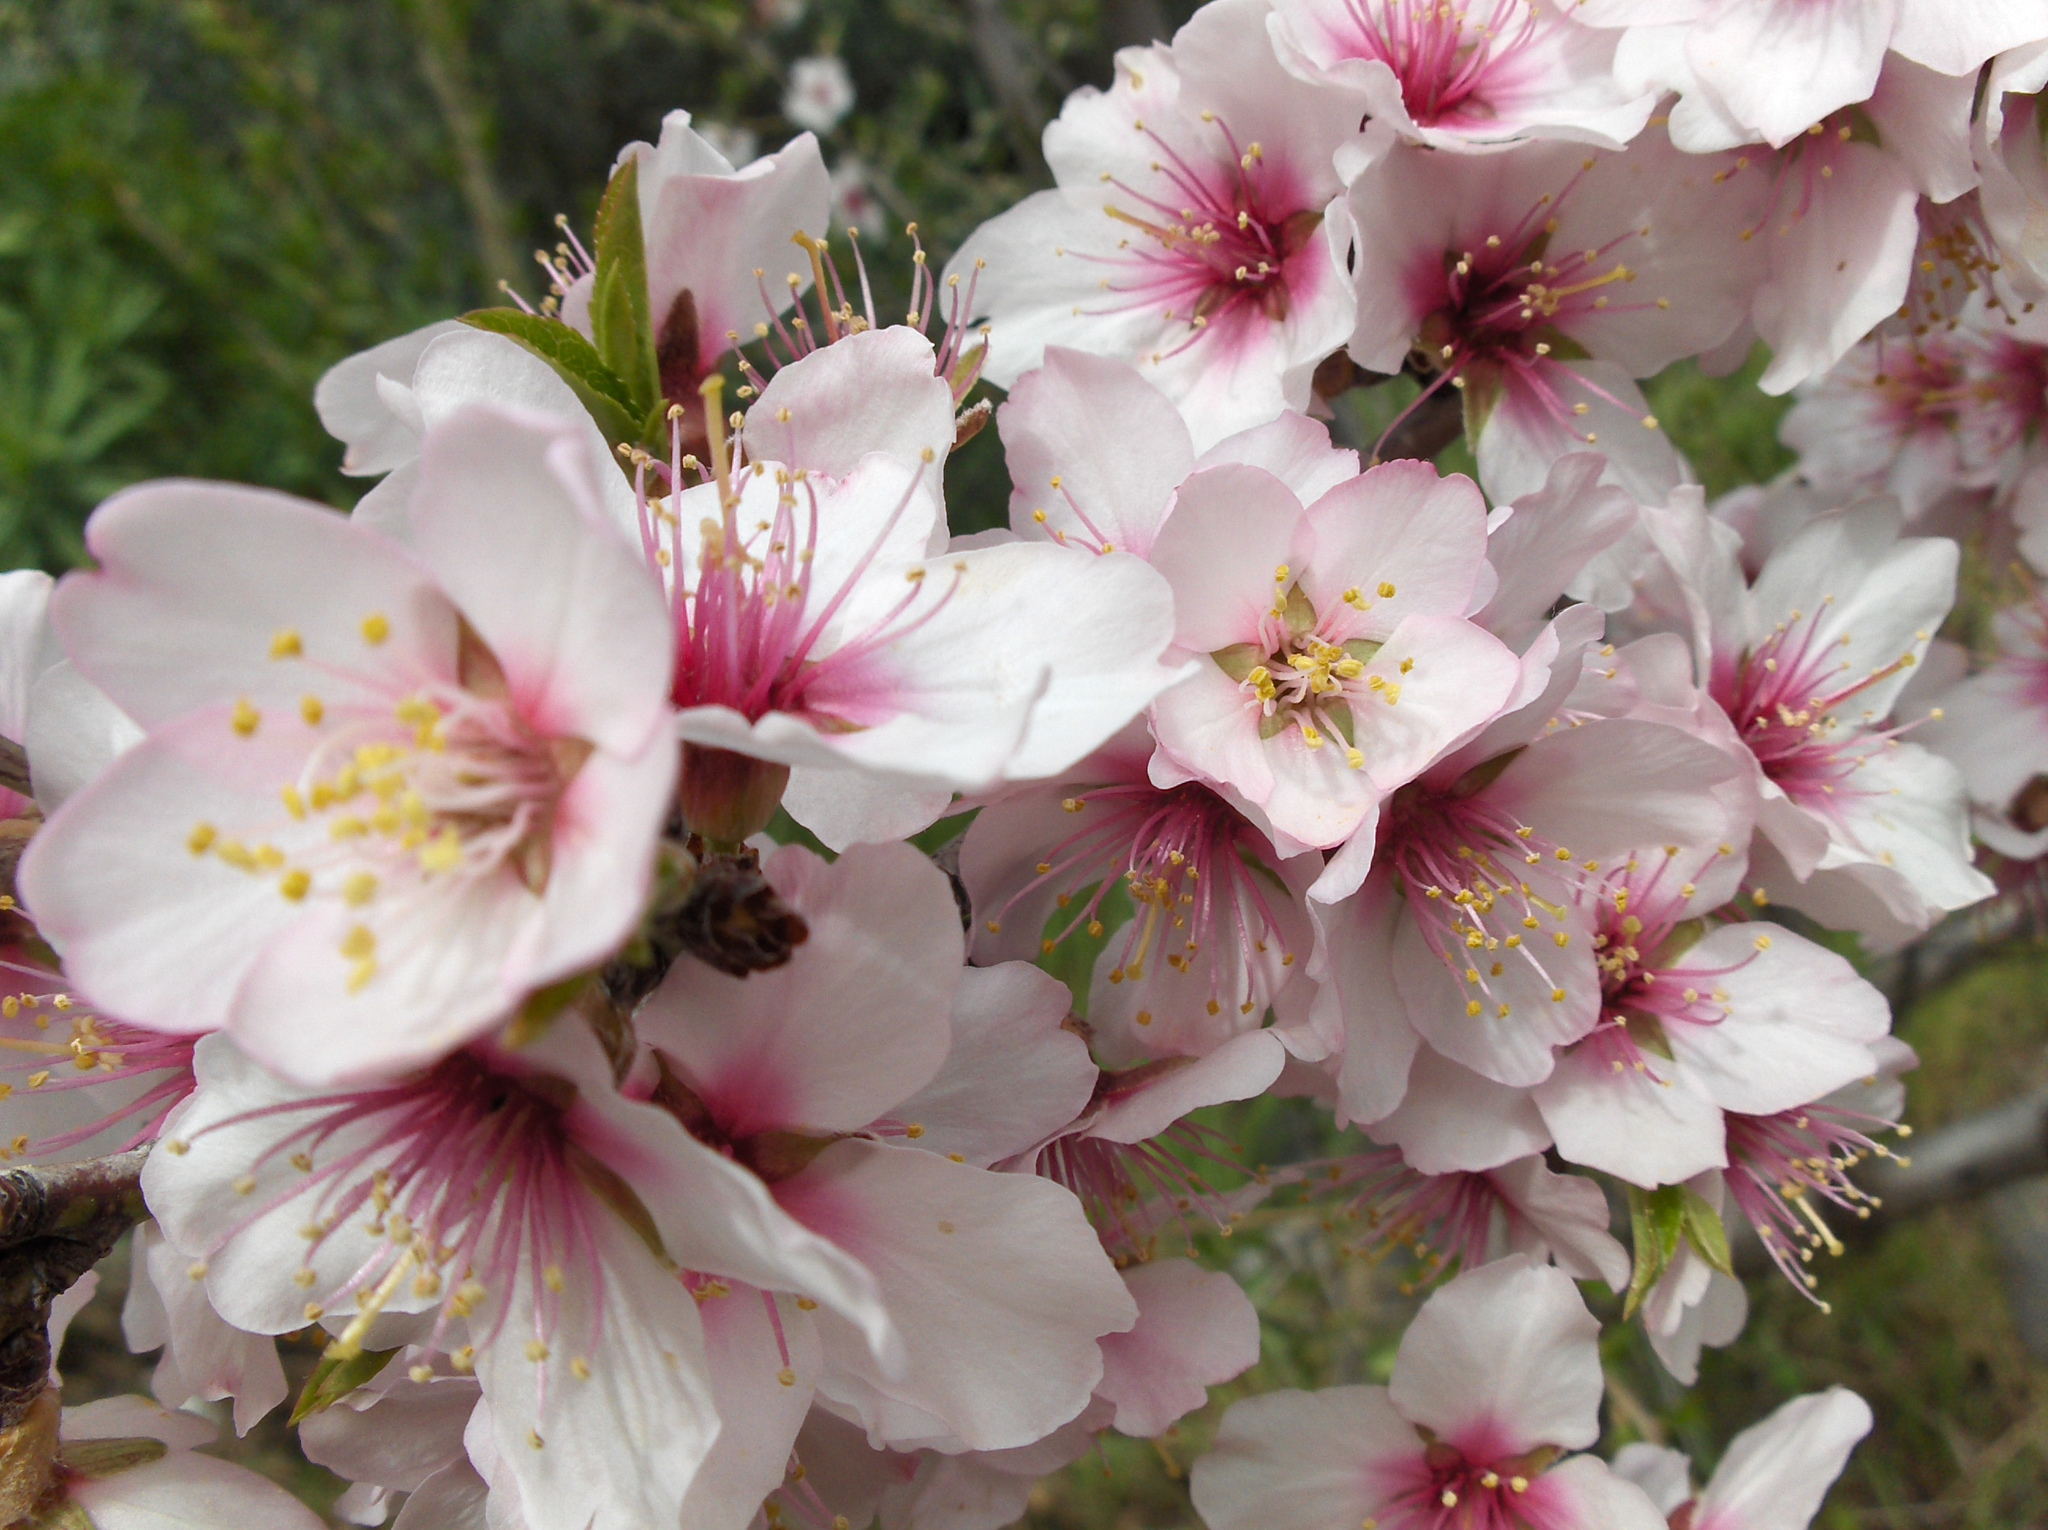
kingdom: Plantae
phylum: Tracheophyta
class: Magnoliopsida
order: Rosales
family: Rosaceae
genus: Prunus
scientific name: Prunus amygdalus
